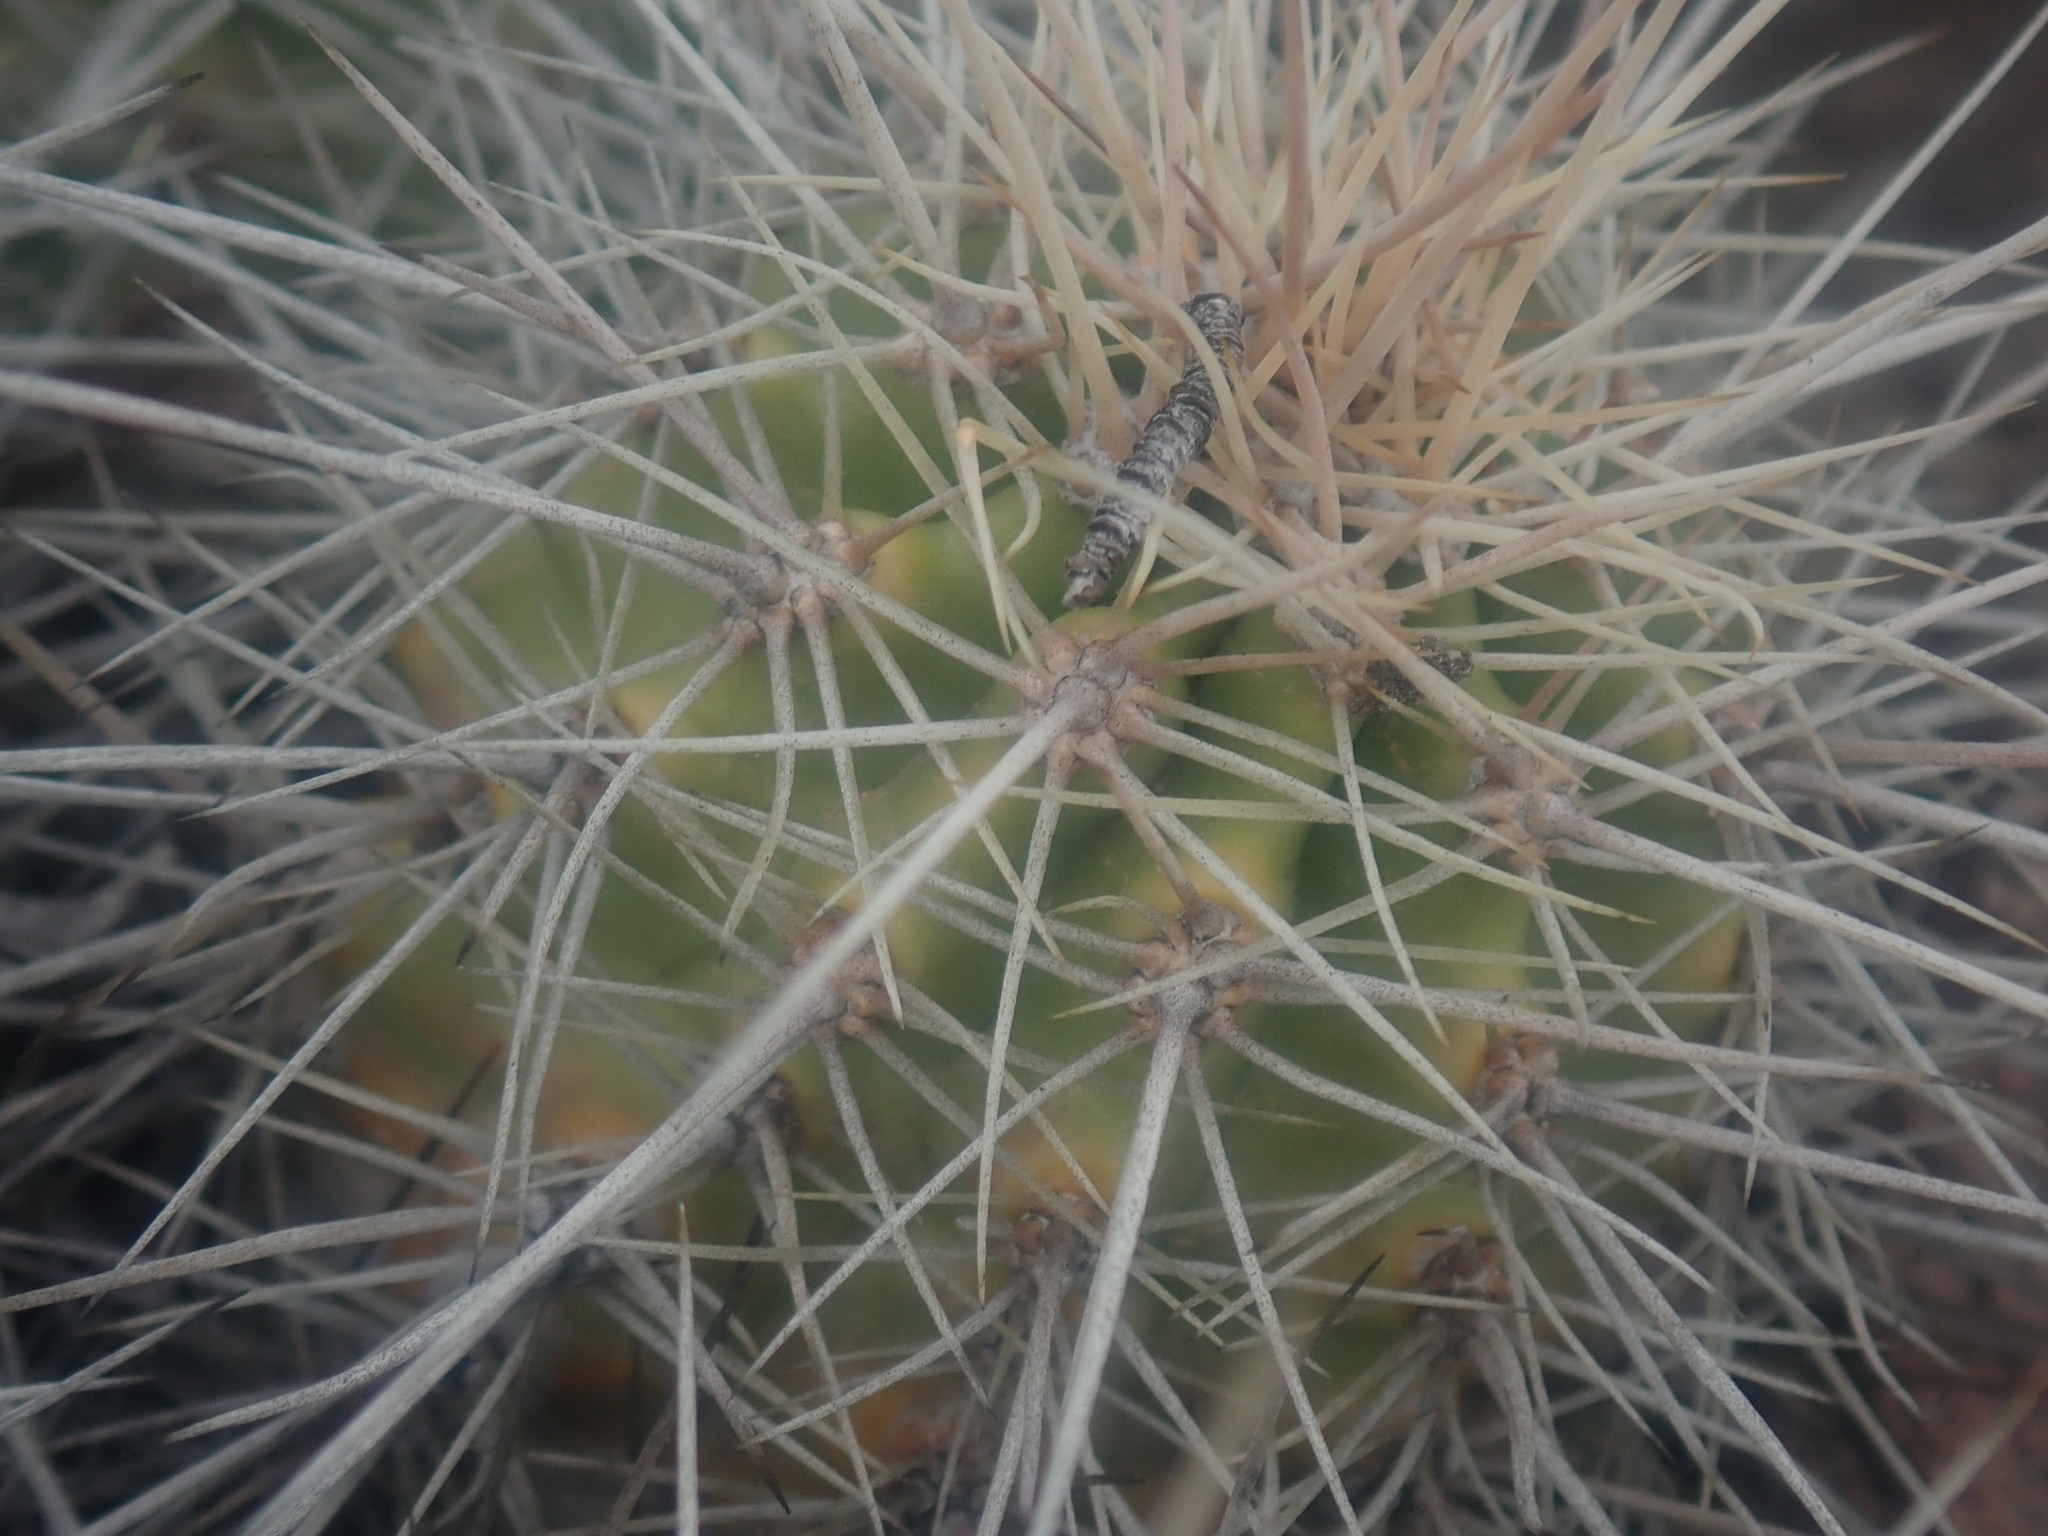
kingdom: Plantae
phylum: Tracheophyta
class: Magnoliopsida
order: Caryophyllales
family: Cactaceae
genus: Echinocereus
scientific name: Echinocereus coccineus
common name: Scarlet hedgehog cactus
